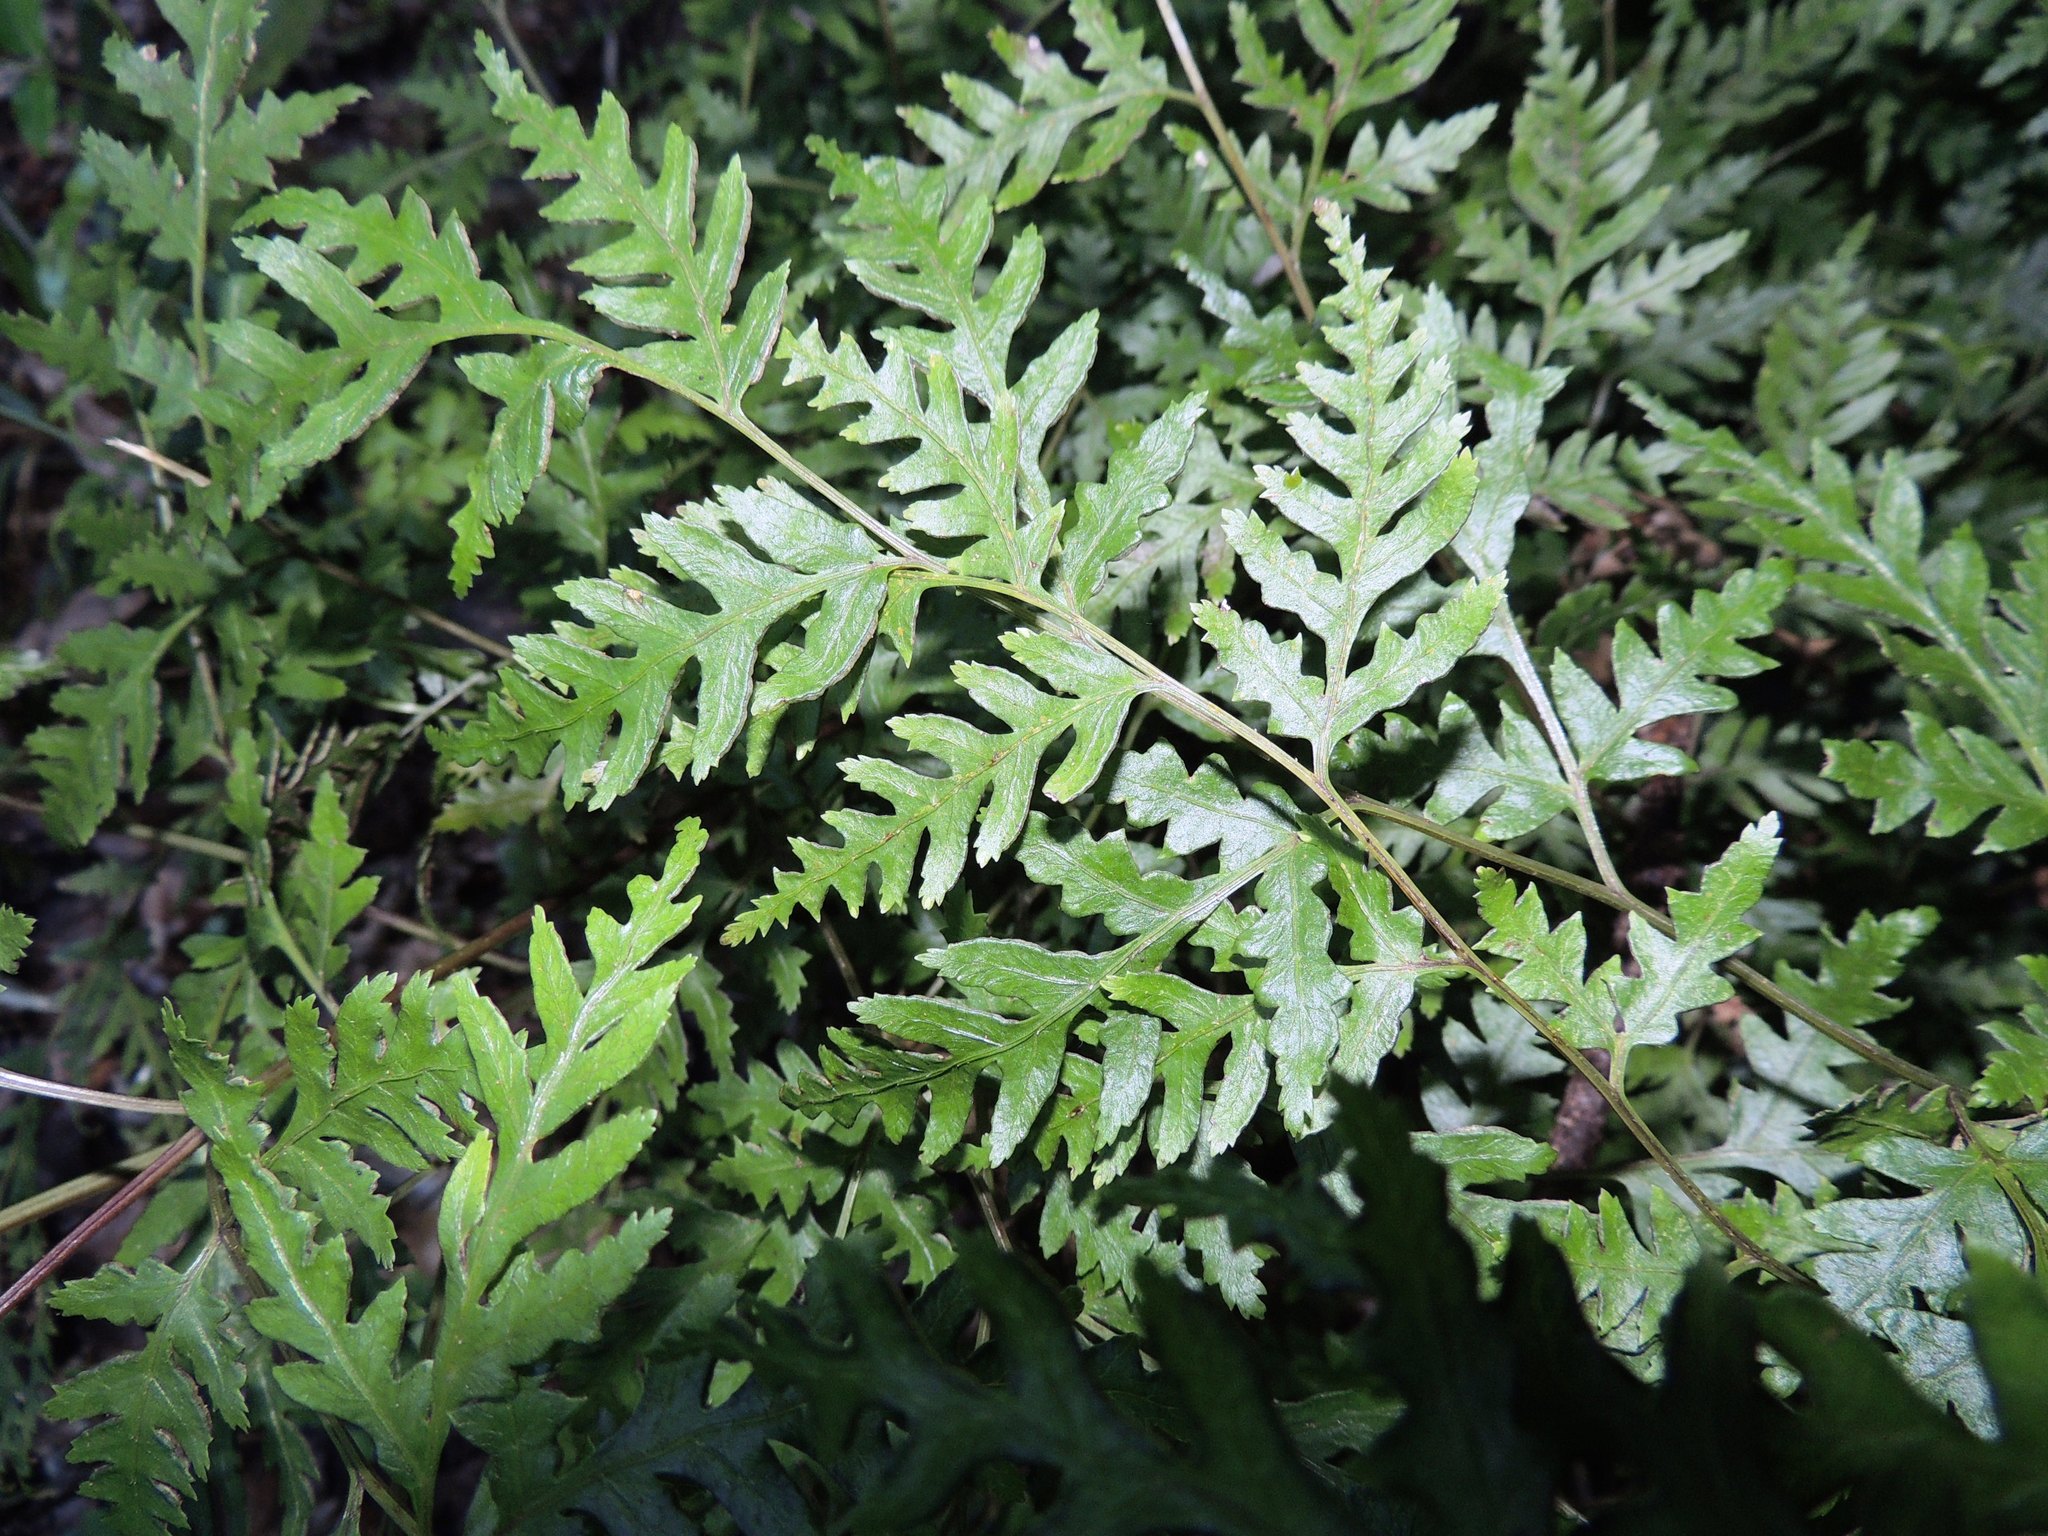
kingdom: Plantae
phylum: Tracheophyta
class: Polypodiopsida
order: Polypodiales
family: Pteridaceae
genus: Pteris
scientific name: Pteris macilenta
